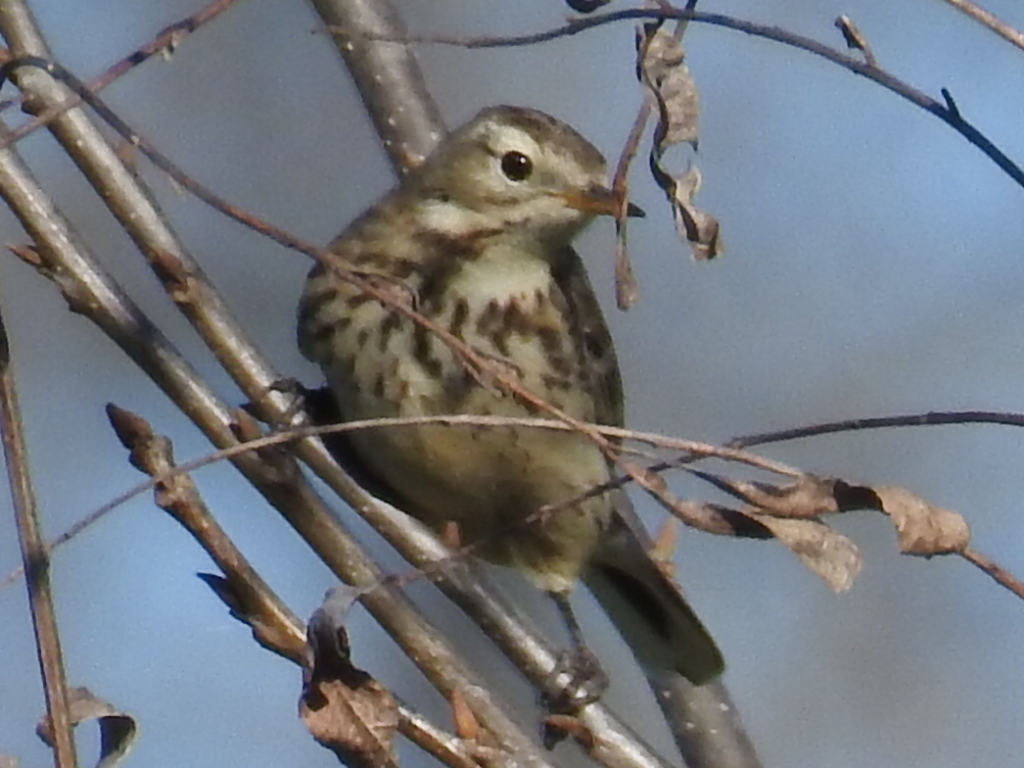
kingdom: Animalia
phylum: Chordata
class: Aves
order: Passeriformes
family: Motacillidae
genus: Anthus
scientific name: Anthus rubescens
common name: Buff-bellied pipit
